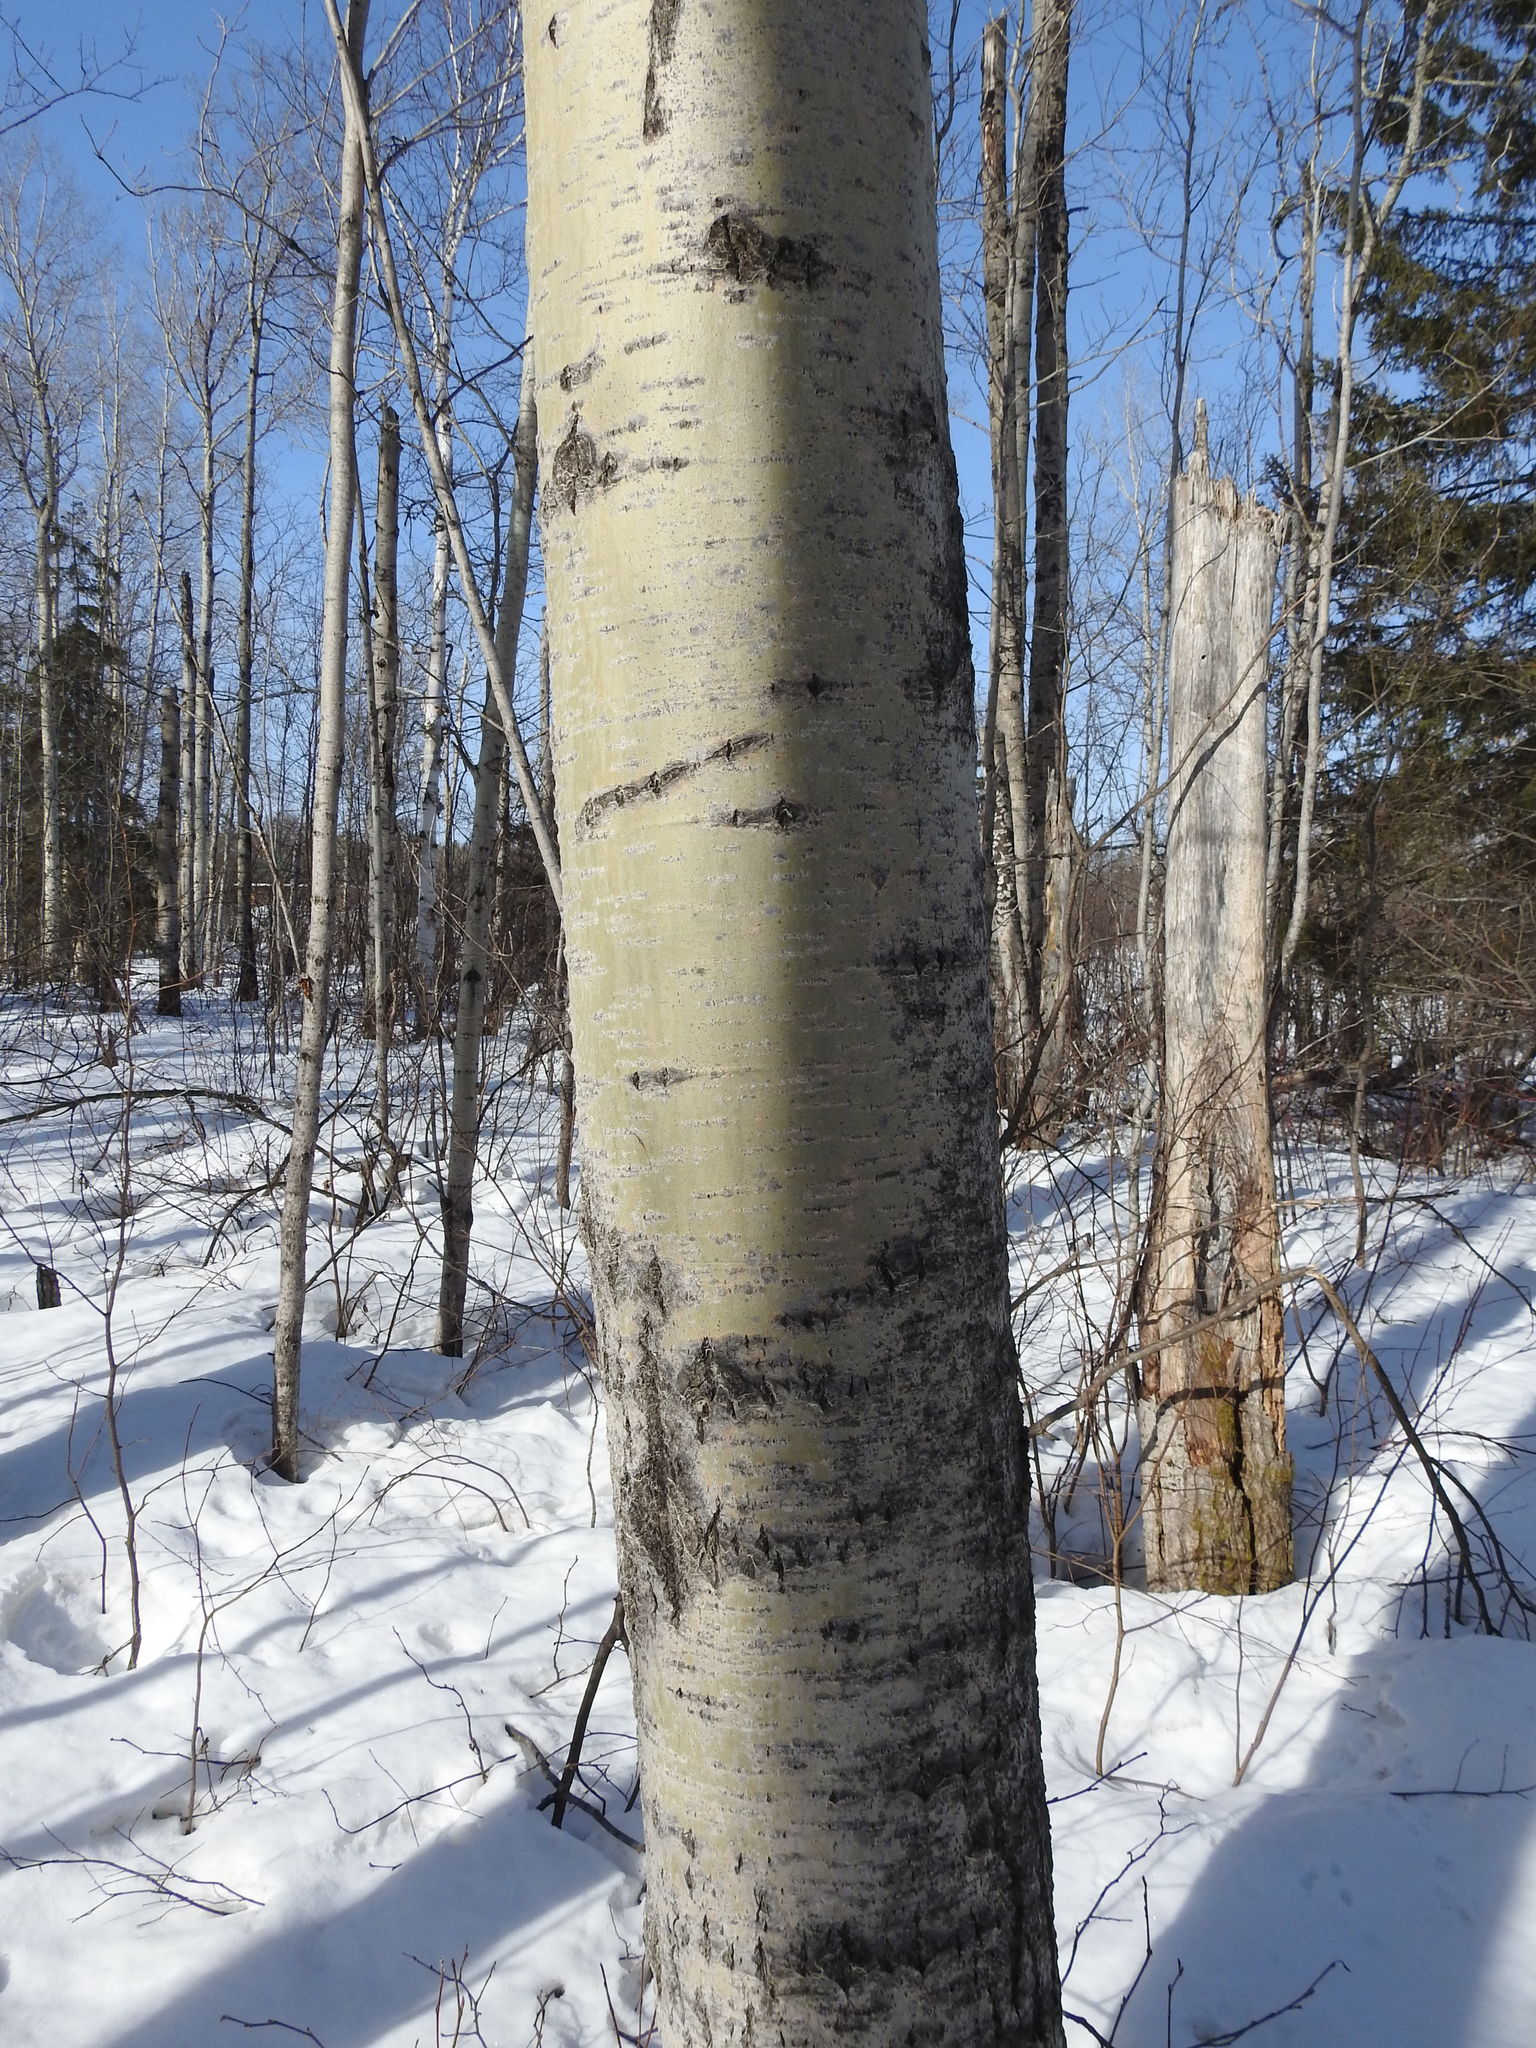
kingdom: Plantae
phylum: Tracheophyta
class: Magnoliopsida
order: Malpighiales
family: Salicaceae
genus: Populus
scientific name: Populus tremuloides
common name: Quaking aspen
